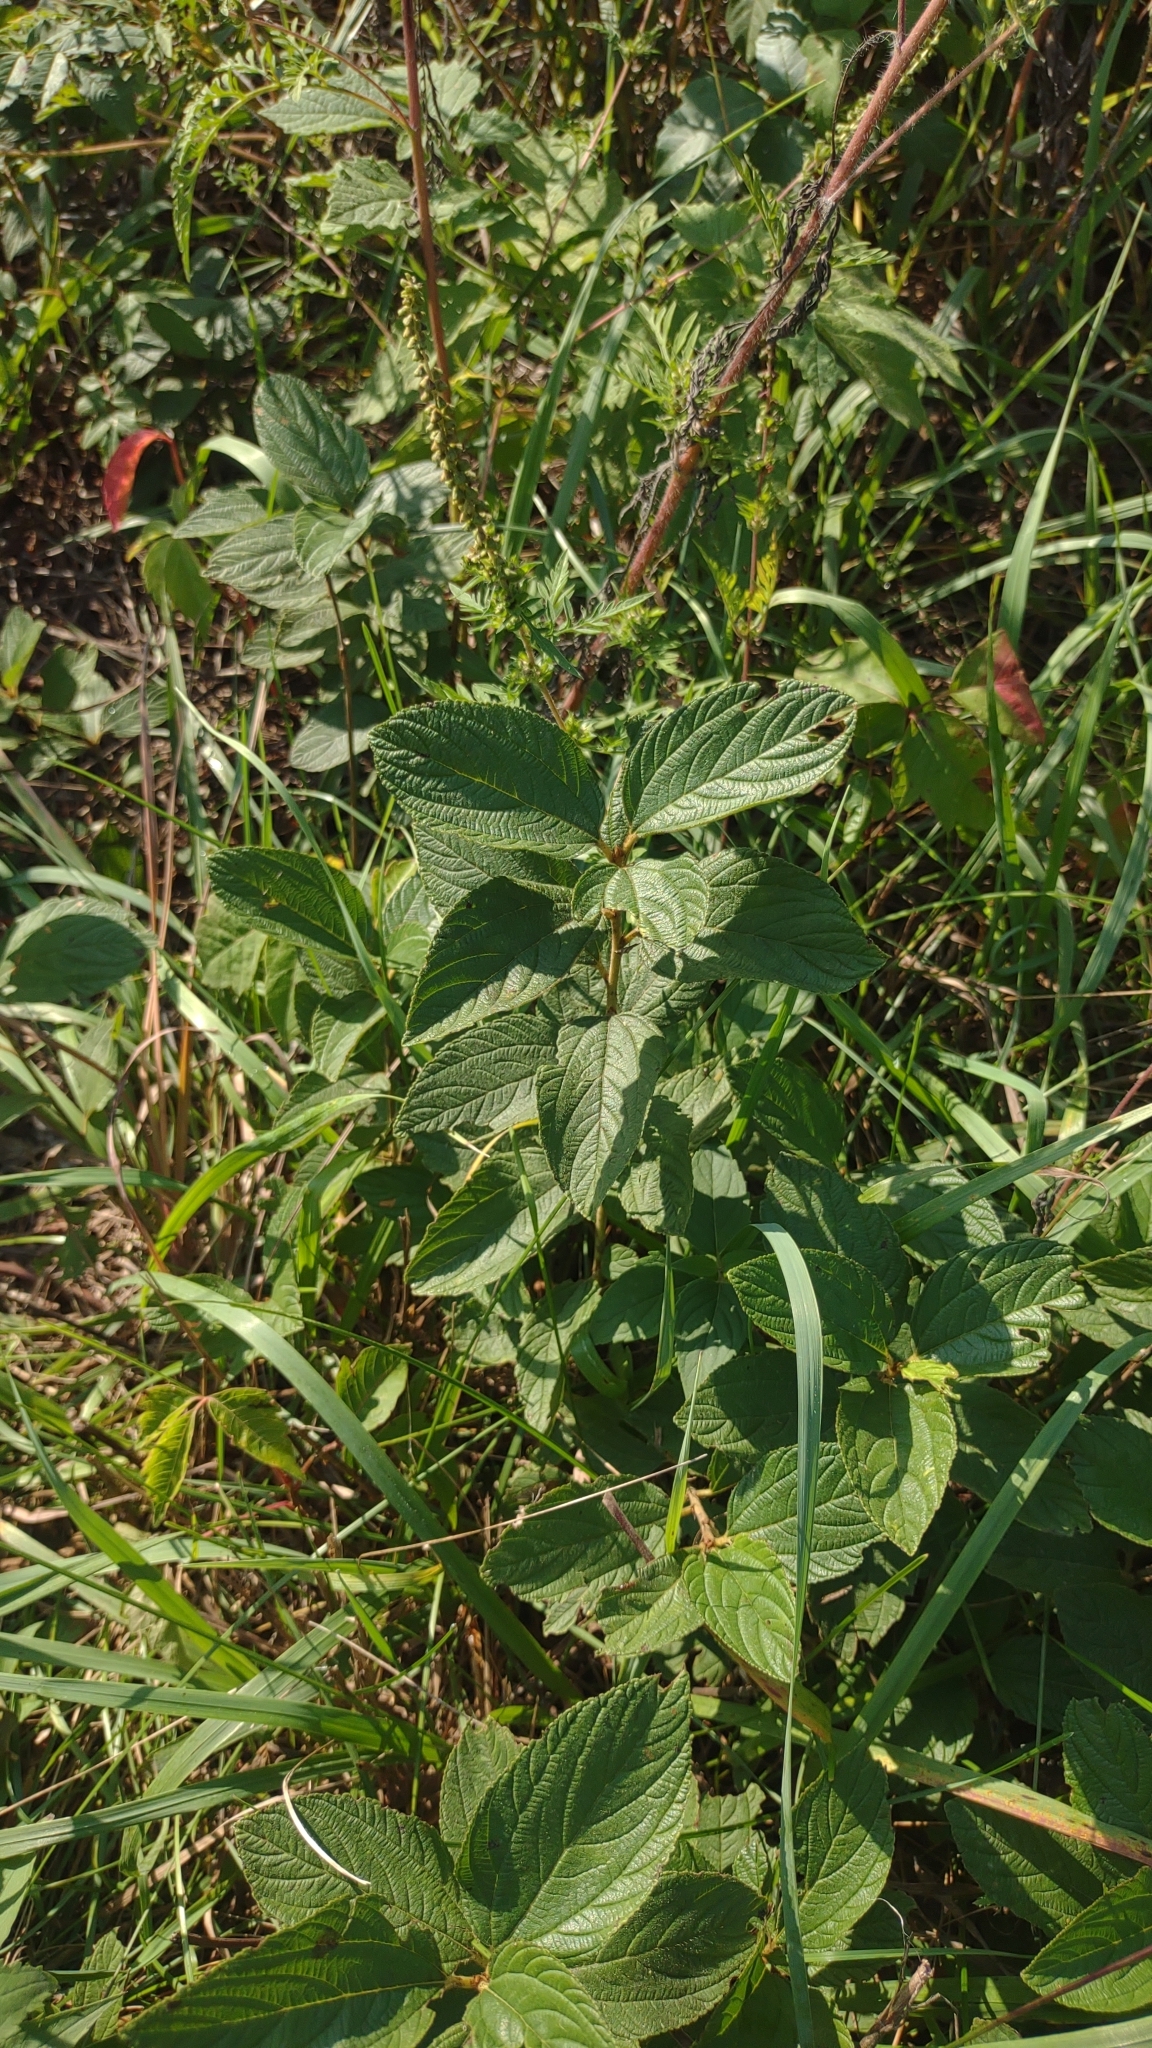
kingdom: Plantae
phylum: Tracheophyta
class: Magnoliopsida
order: Rosales
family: Rhamnaceae
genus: Ceanothus
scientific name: Ceanothus americanus
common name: Redroot
